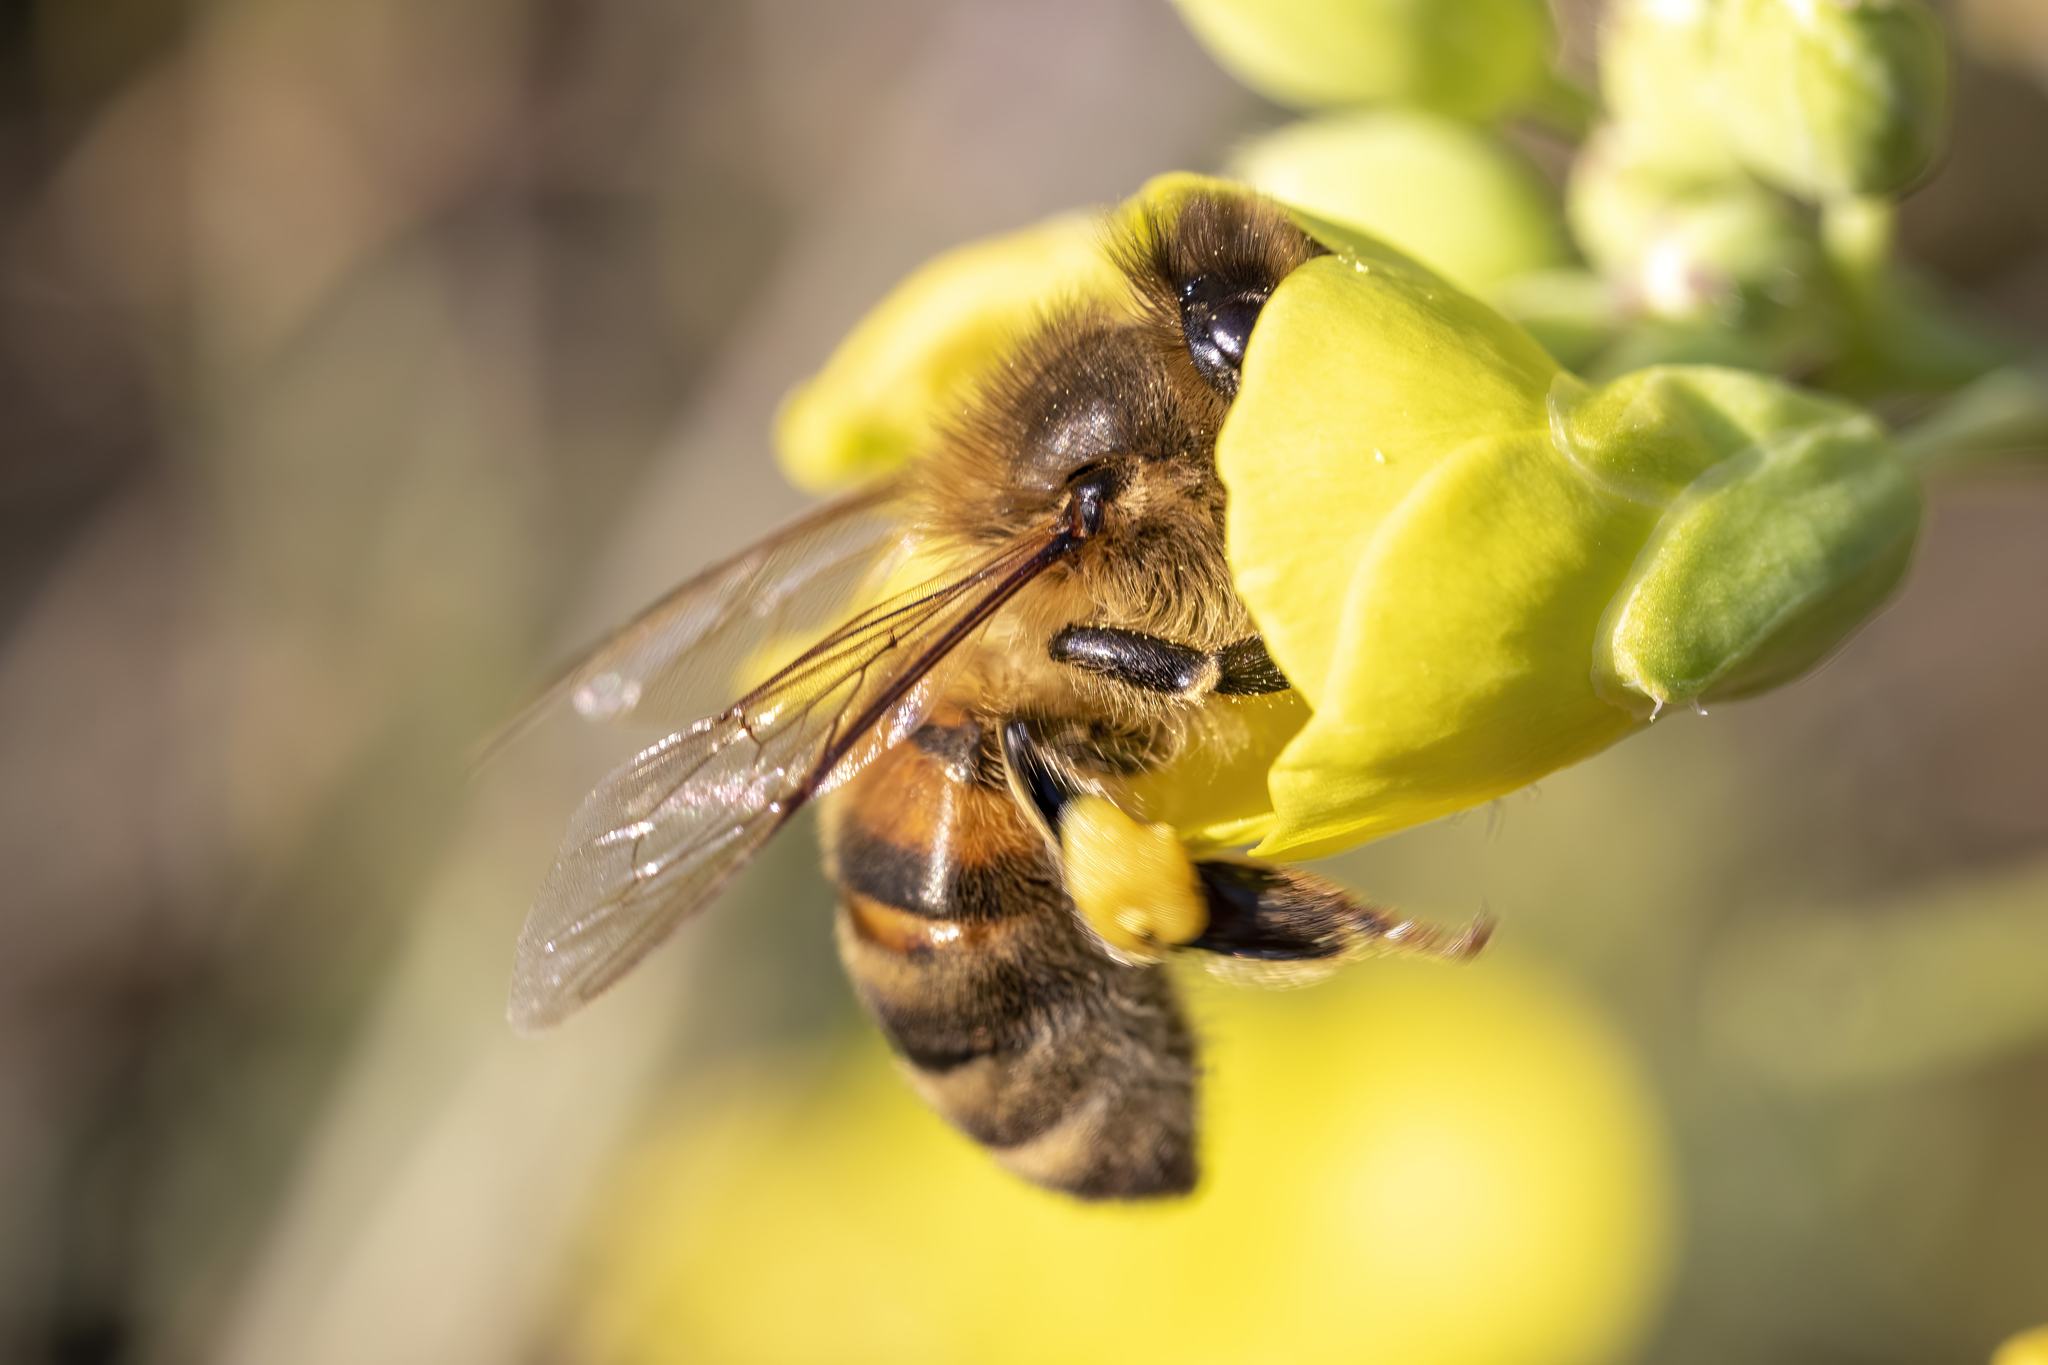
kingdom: Animalia
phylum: Arthropoda
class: Insecta
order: Hymenoptera
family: Apidae
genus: Apis
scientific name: Apis mellifera
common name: Honey bee
